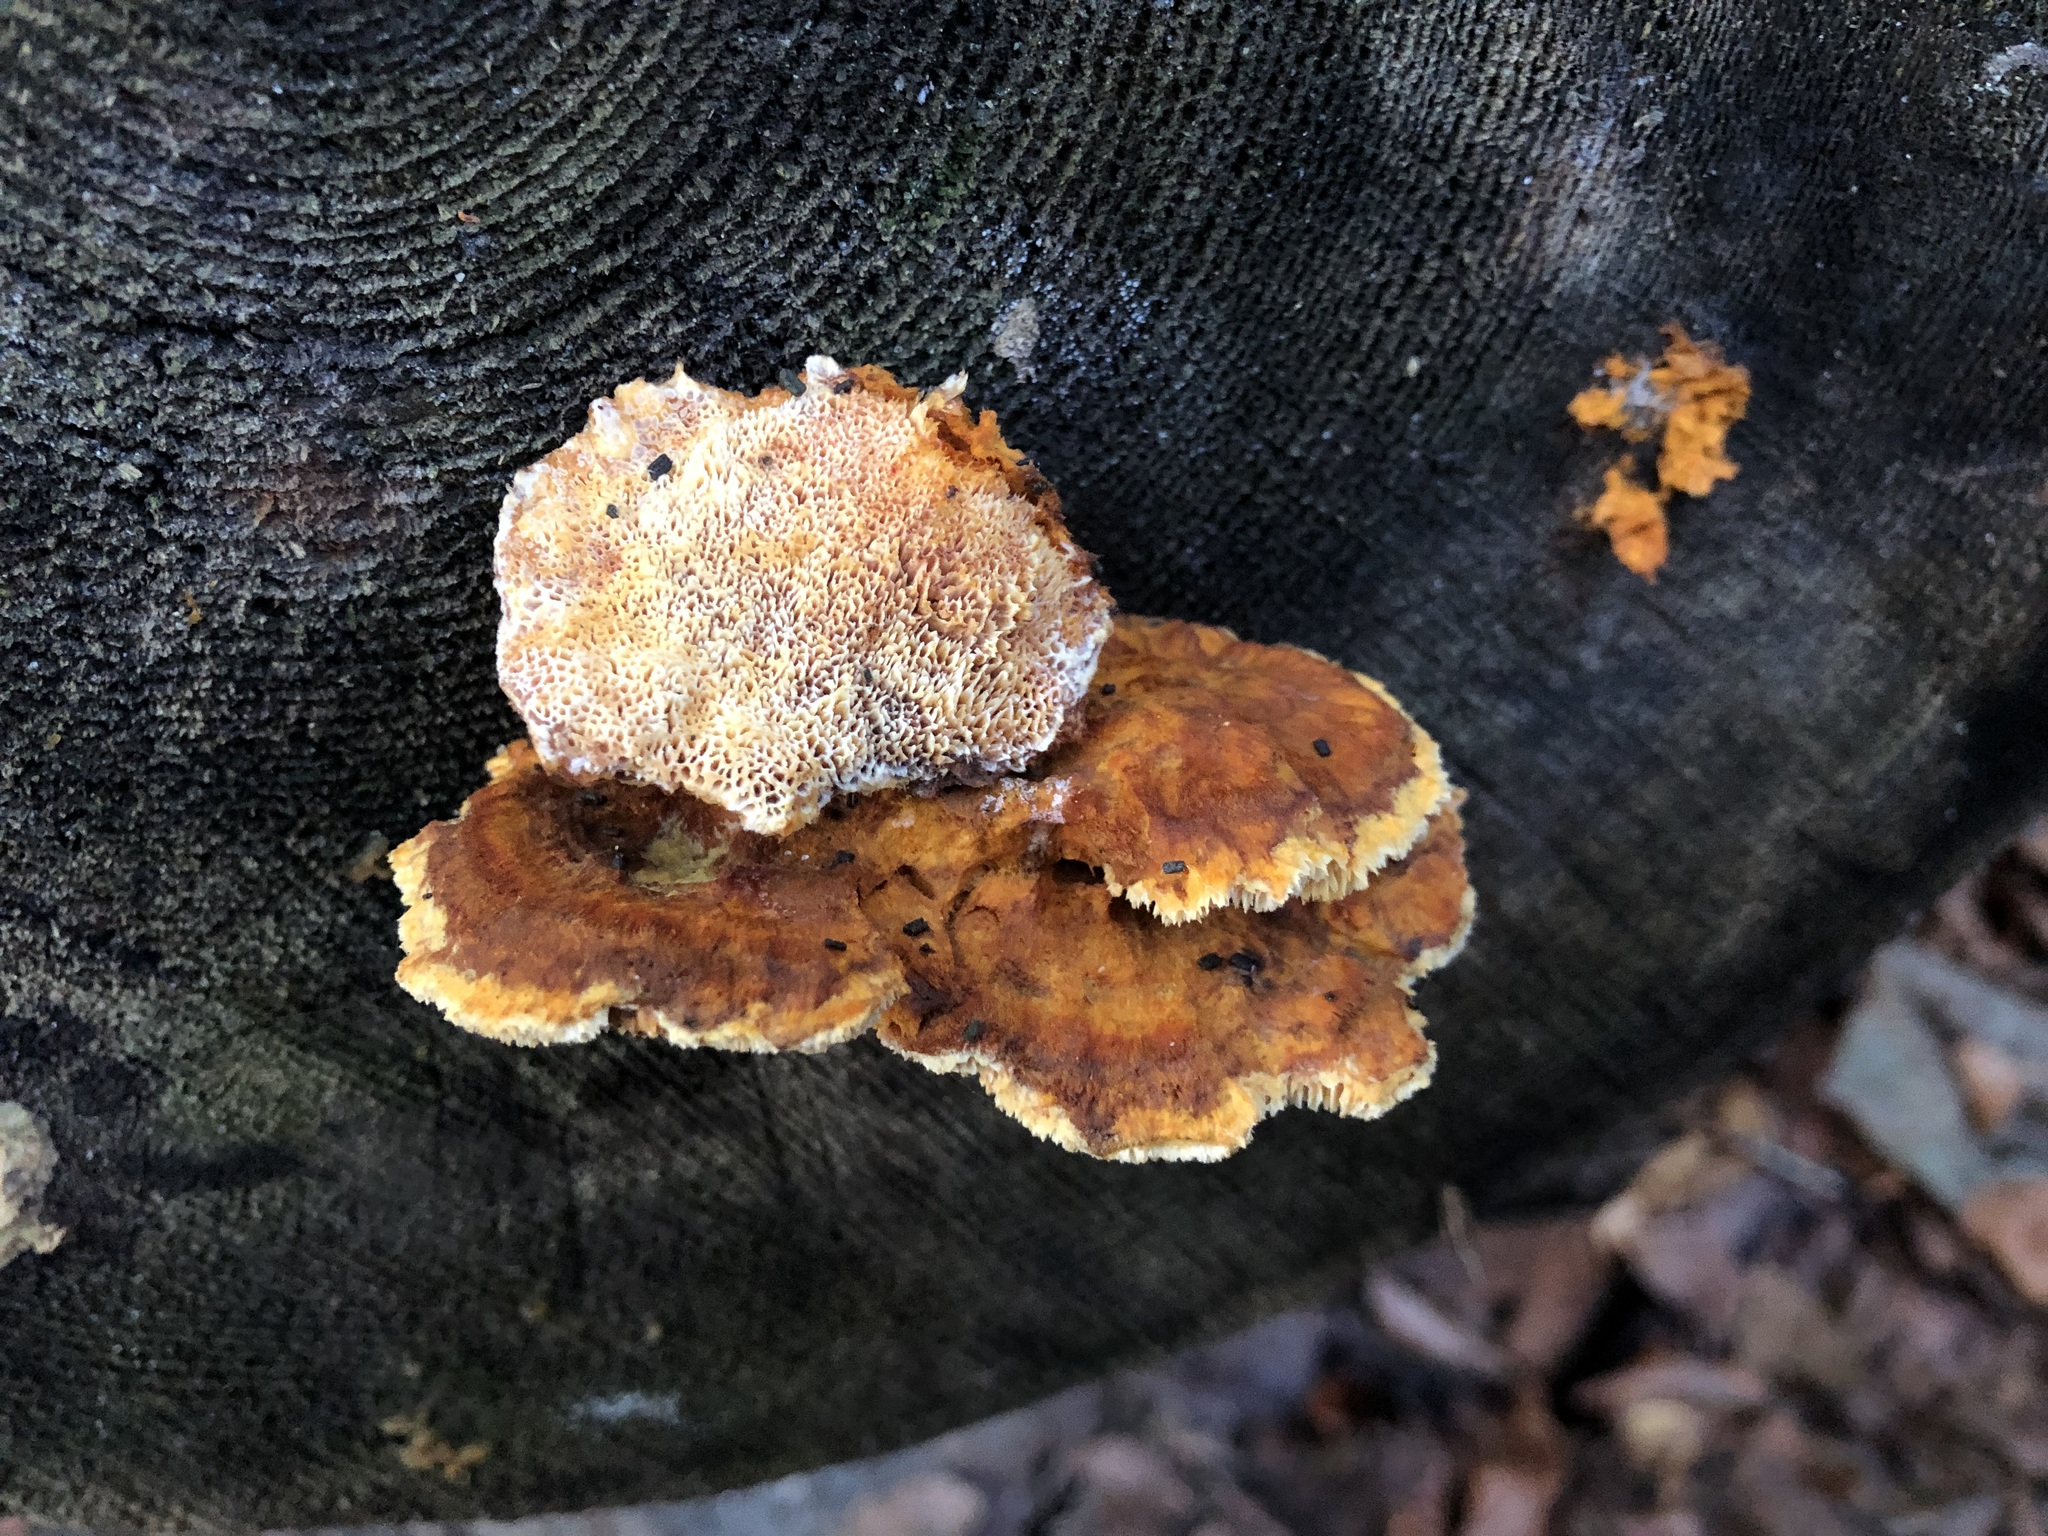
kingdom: Fungi
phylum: Basidiomycota
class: Agaricomycetes
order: Polyporales
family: Pycnoporellaceae
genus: Pycnoporellus
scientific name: Pycnoporellus fulgens
